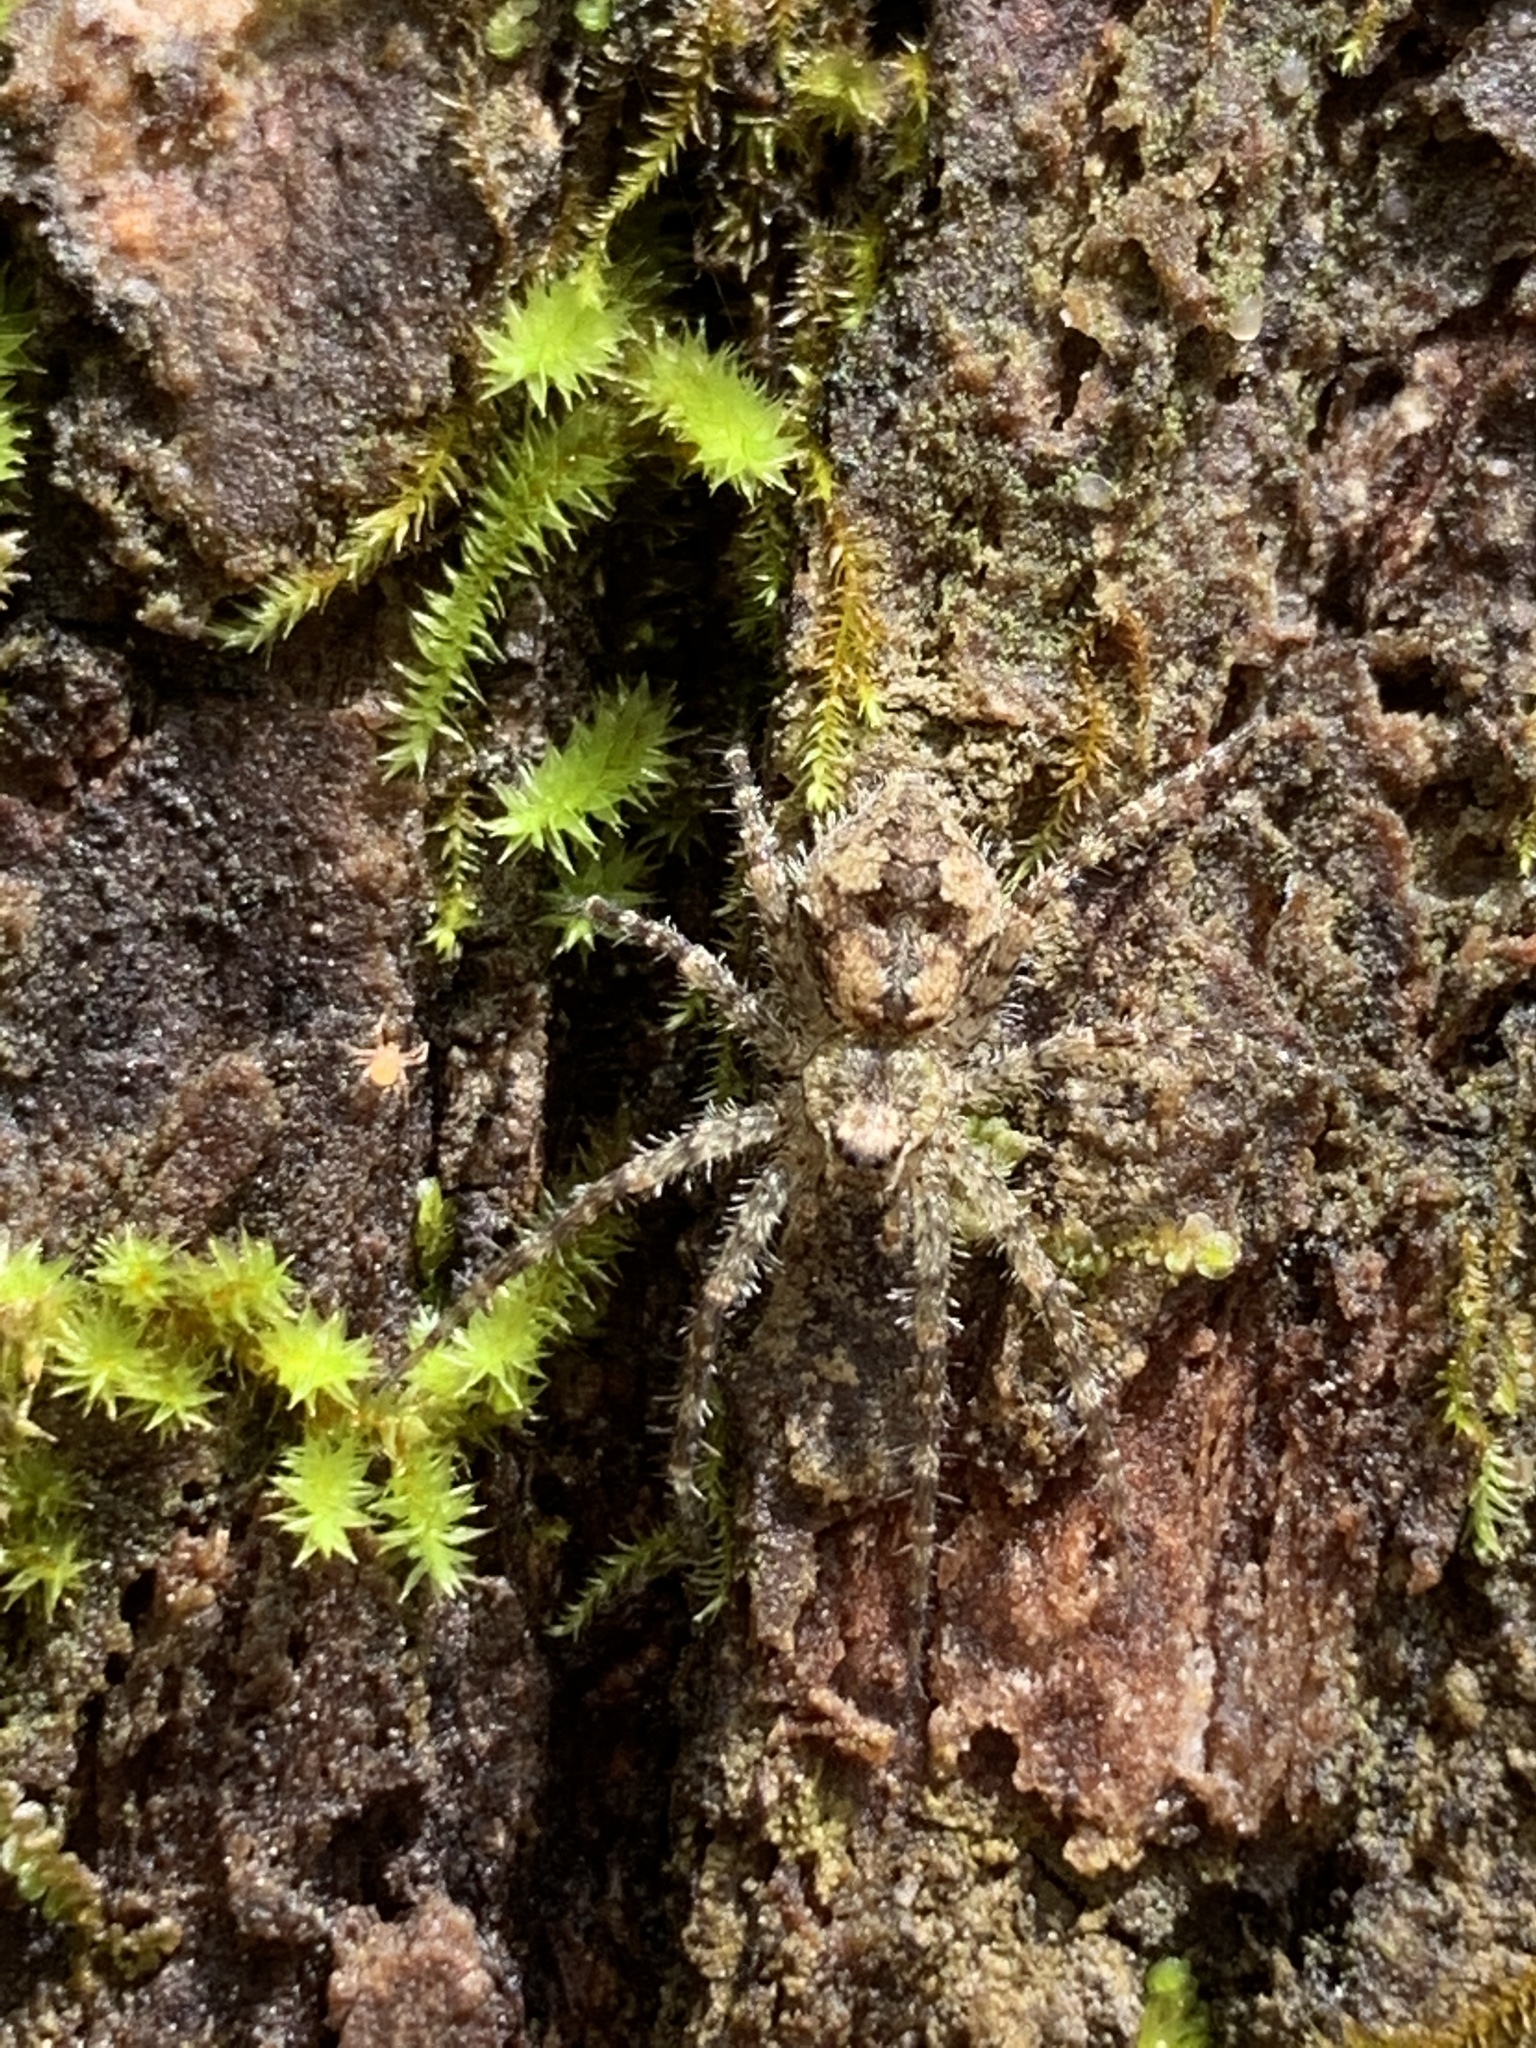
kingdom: Animalia
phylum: Arthropoda
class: Arachnida
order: Araneae
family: Pisauridae
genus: Dolomedes
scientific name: Dolomedes albineus
